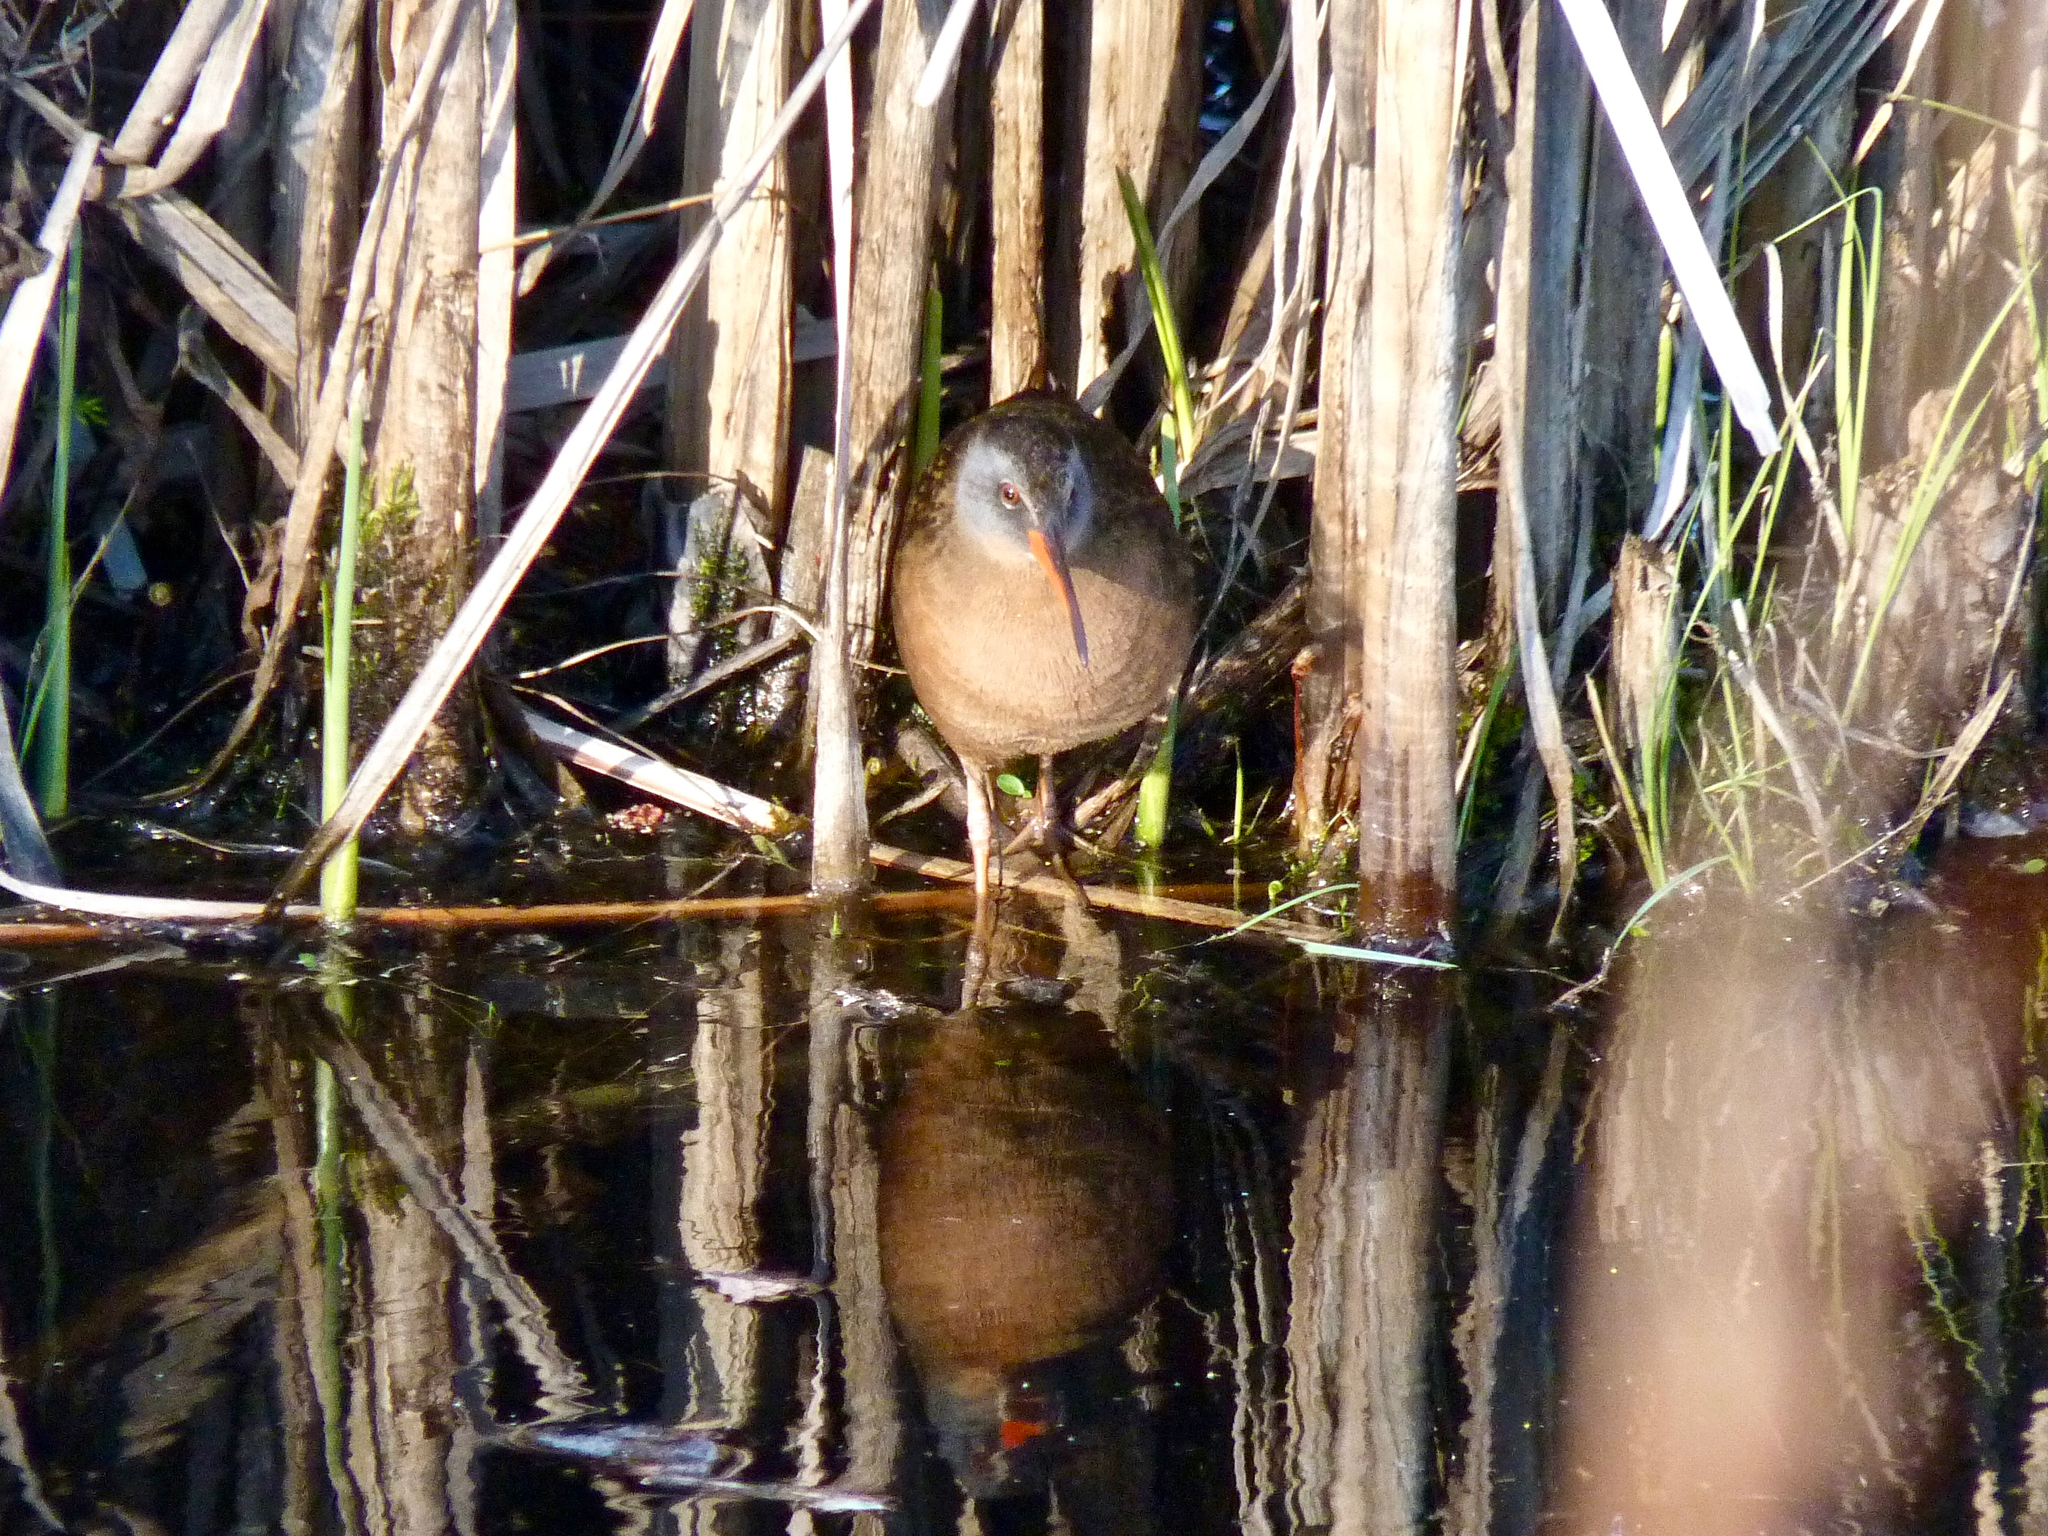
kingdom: Animalia
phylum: Chordata
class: Aves
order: Gruiformes
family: Rallidae
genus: Rallus
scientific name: Rallus limicola
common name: Virginia rail
